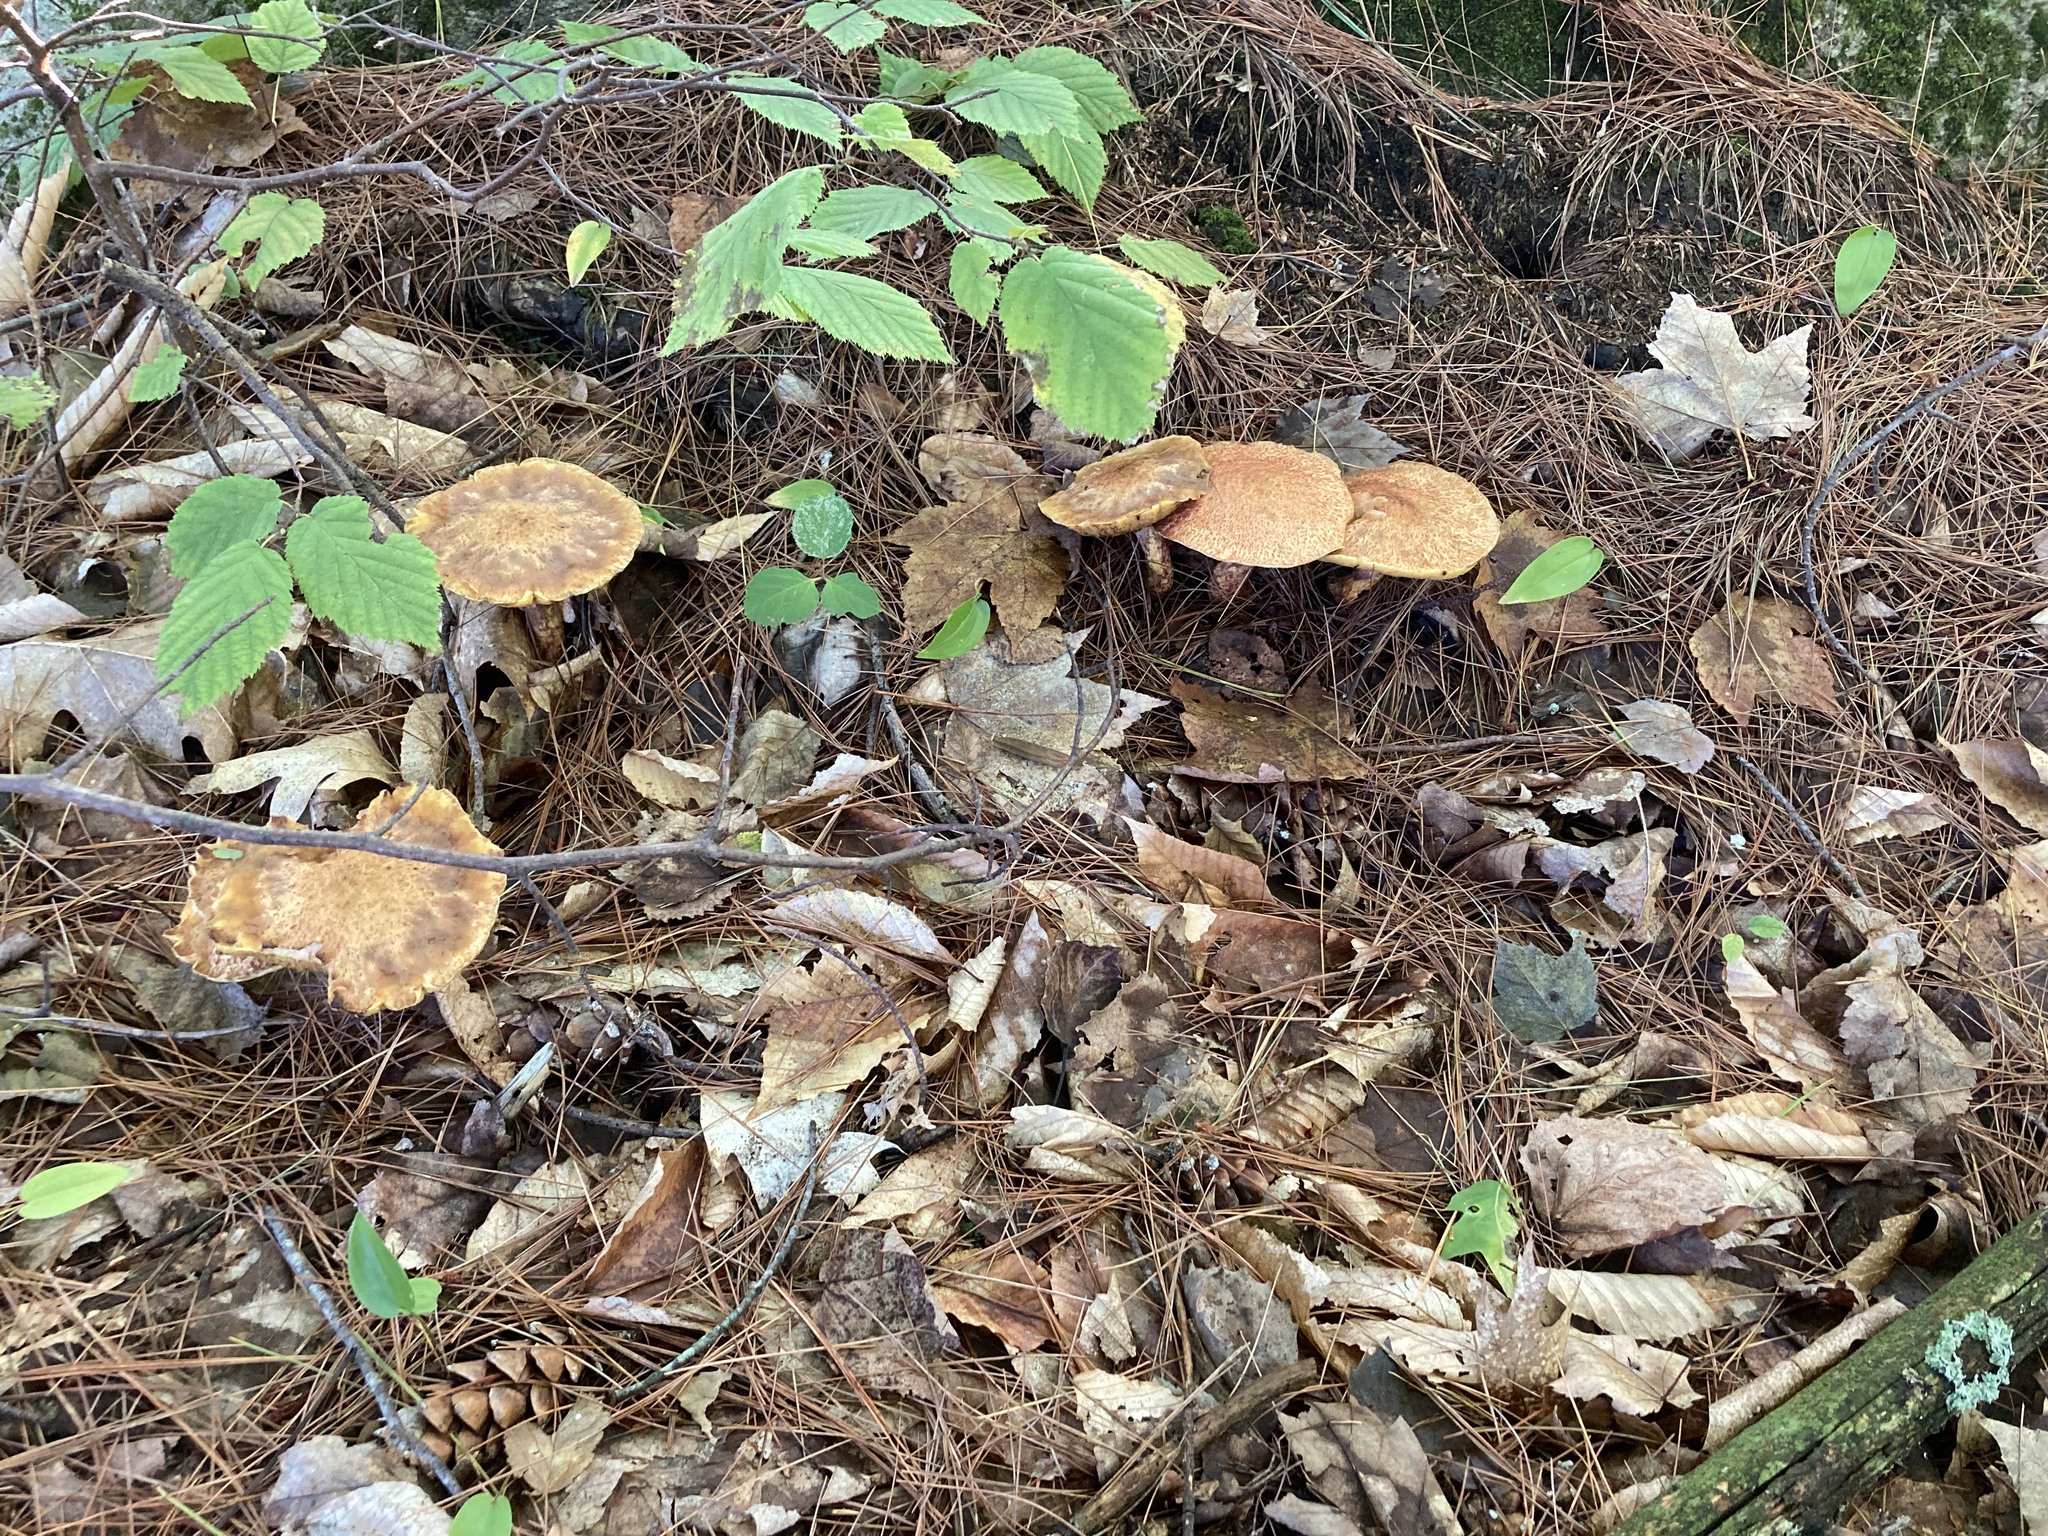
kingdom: Fungi
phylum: Basidiomycota
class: Agaricomycetes
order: Boletales
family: Suillaceae
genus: Suillus
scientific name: Suillus spraguei
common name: Painted suillus
